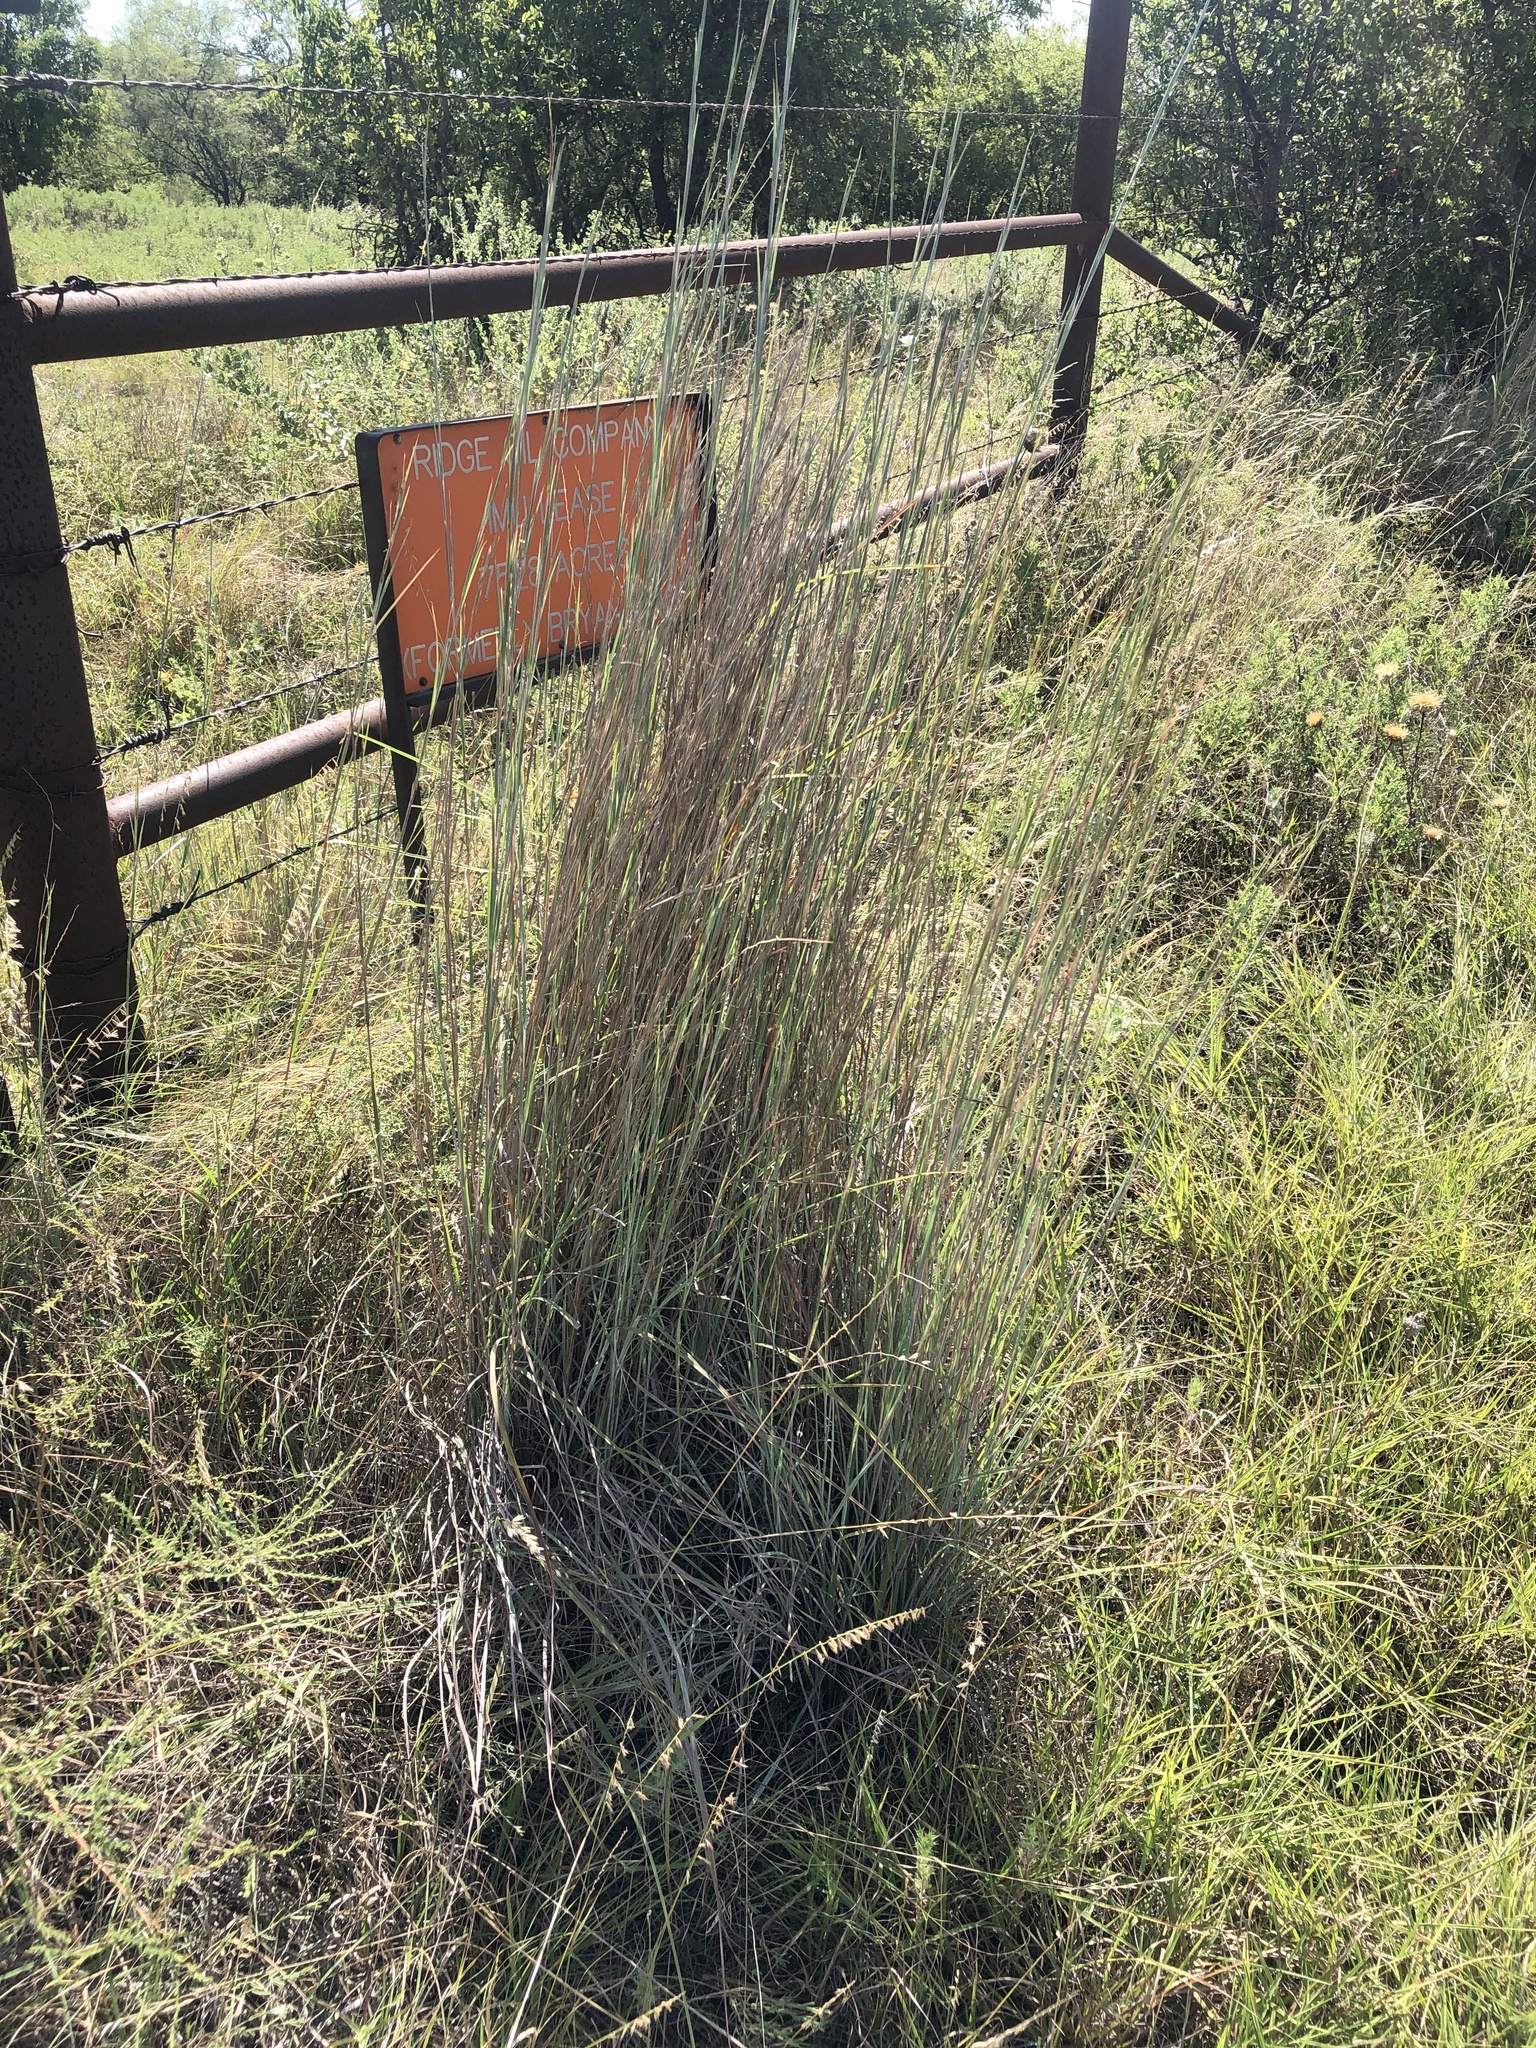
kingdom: Plantae
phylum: Tracheophyta
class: Liliopsida
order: Poales
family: Poaceae
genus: Schizachyrium
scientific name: Schizachyrium scoparium
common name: Little bluestem
